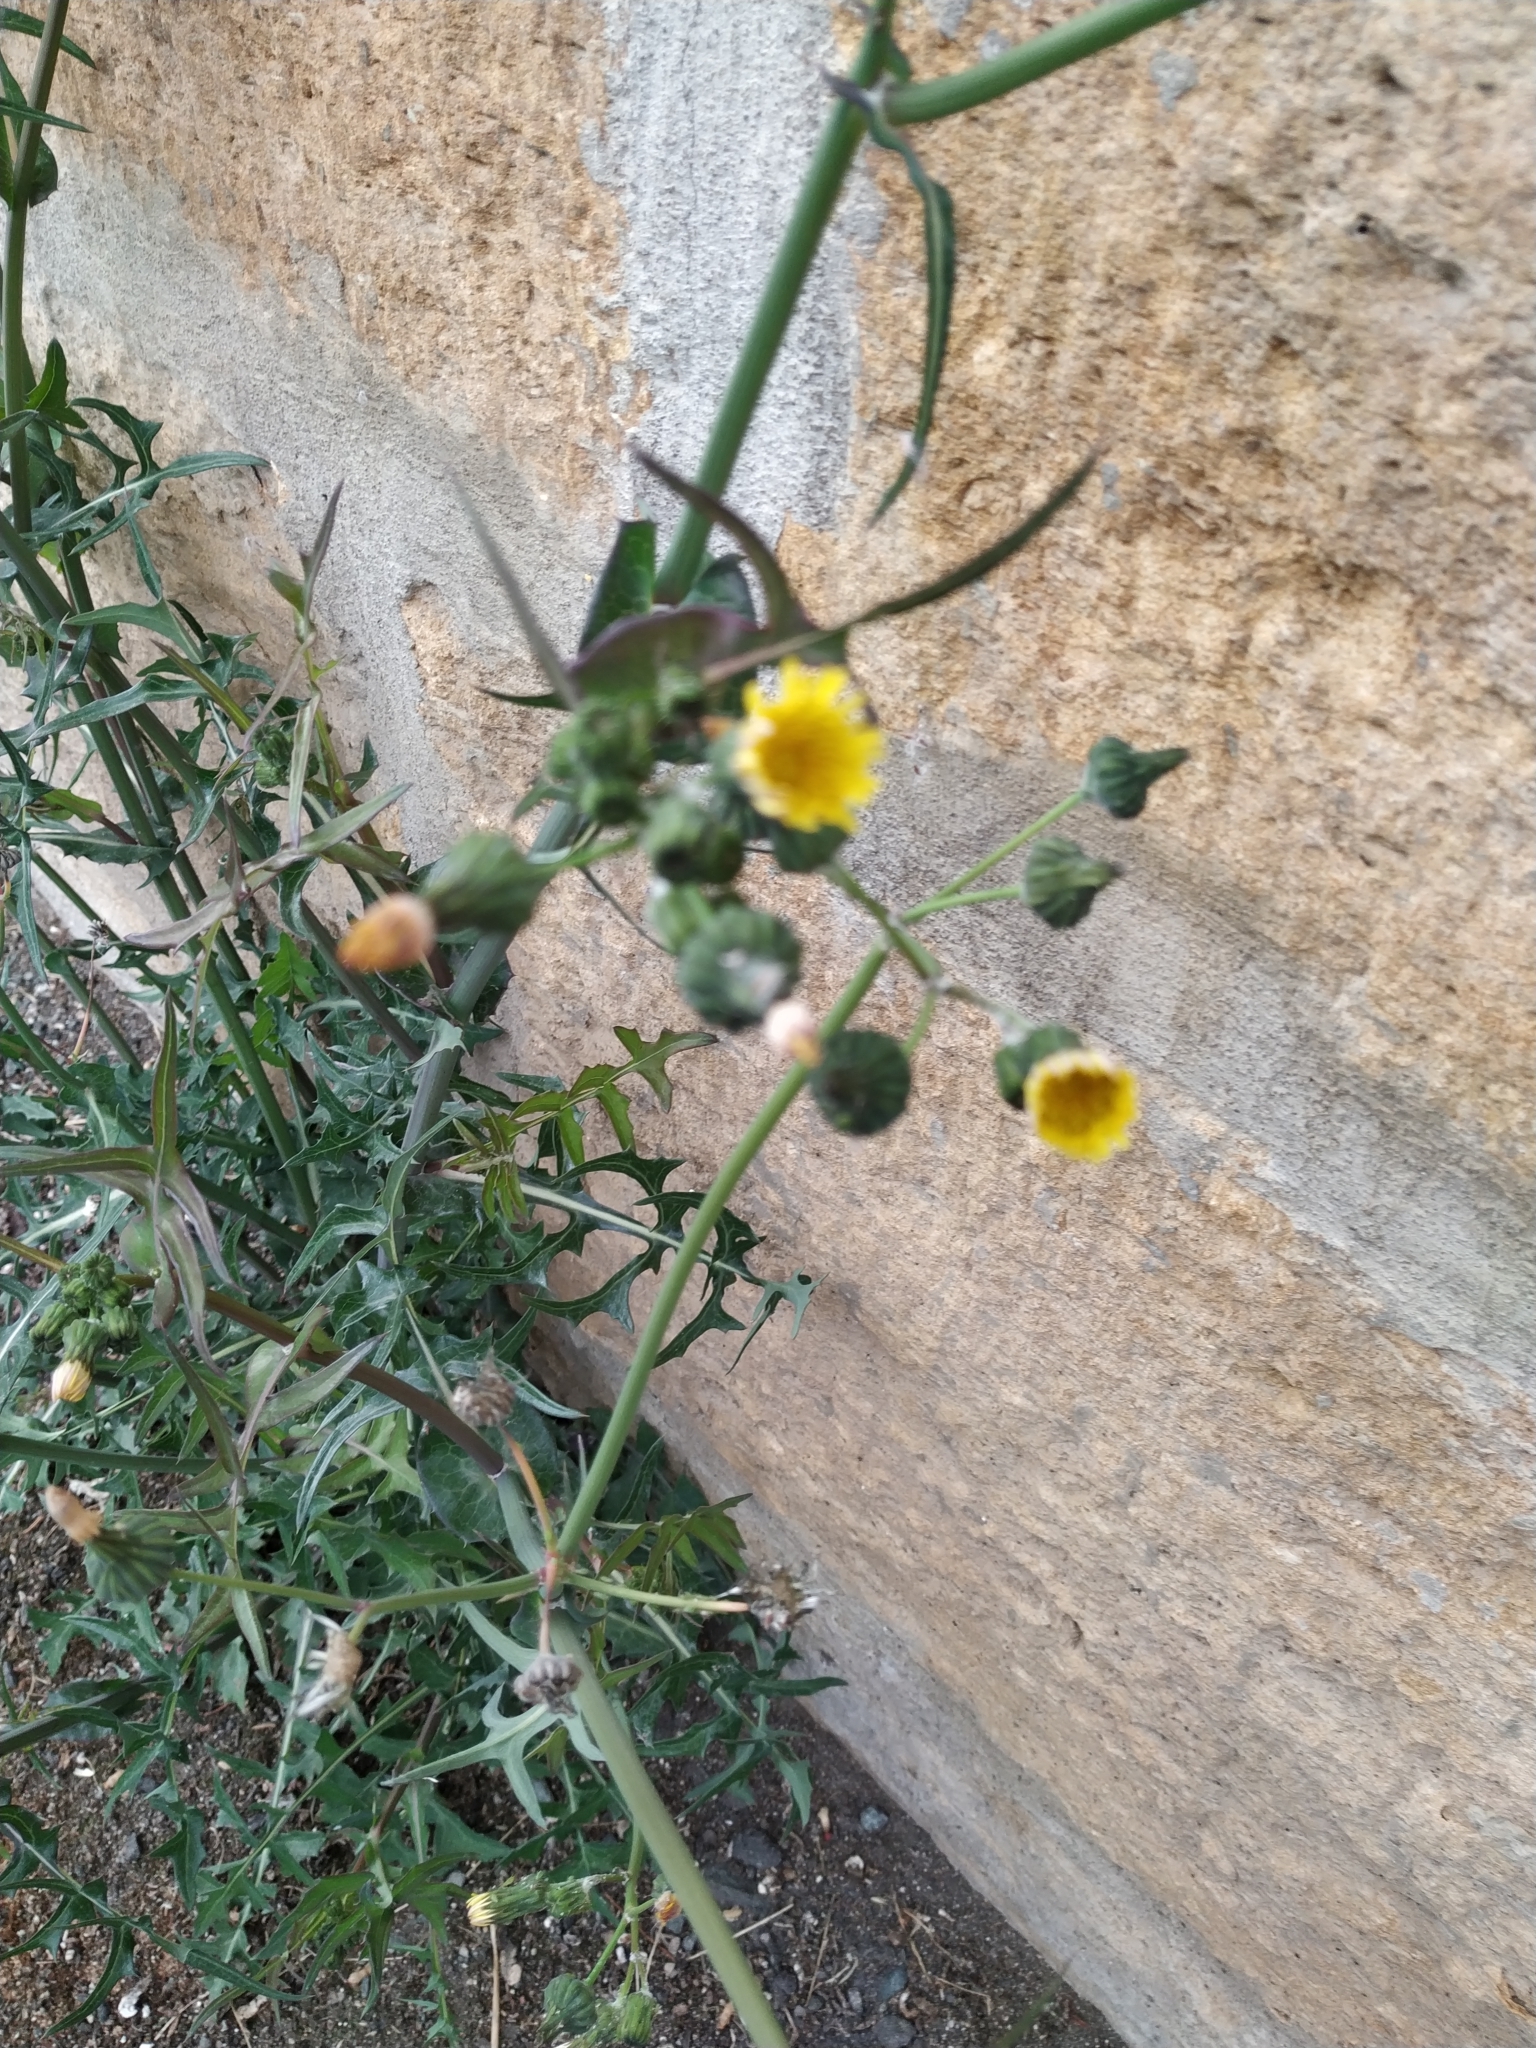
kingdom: Plantae
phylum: Tracheophyta
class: Magnoliopsida
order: Asterales
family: Asteraceae
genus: Sonchus
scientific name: Sonchus oleraceus
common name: Common sowthistle
